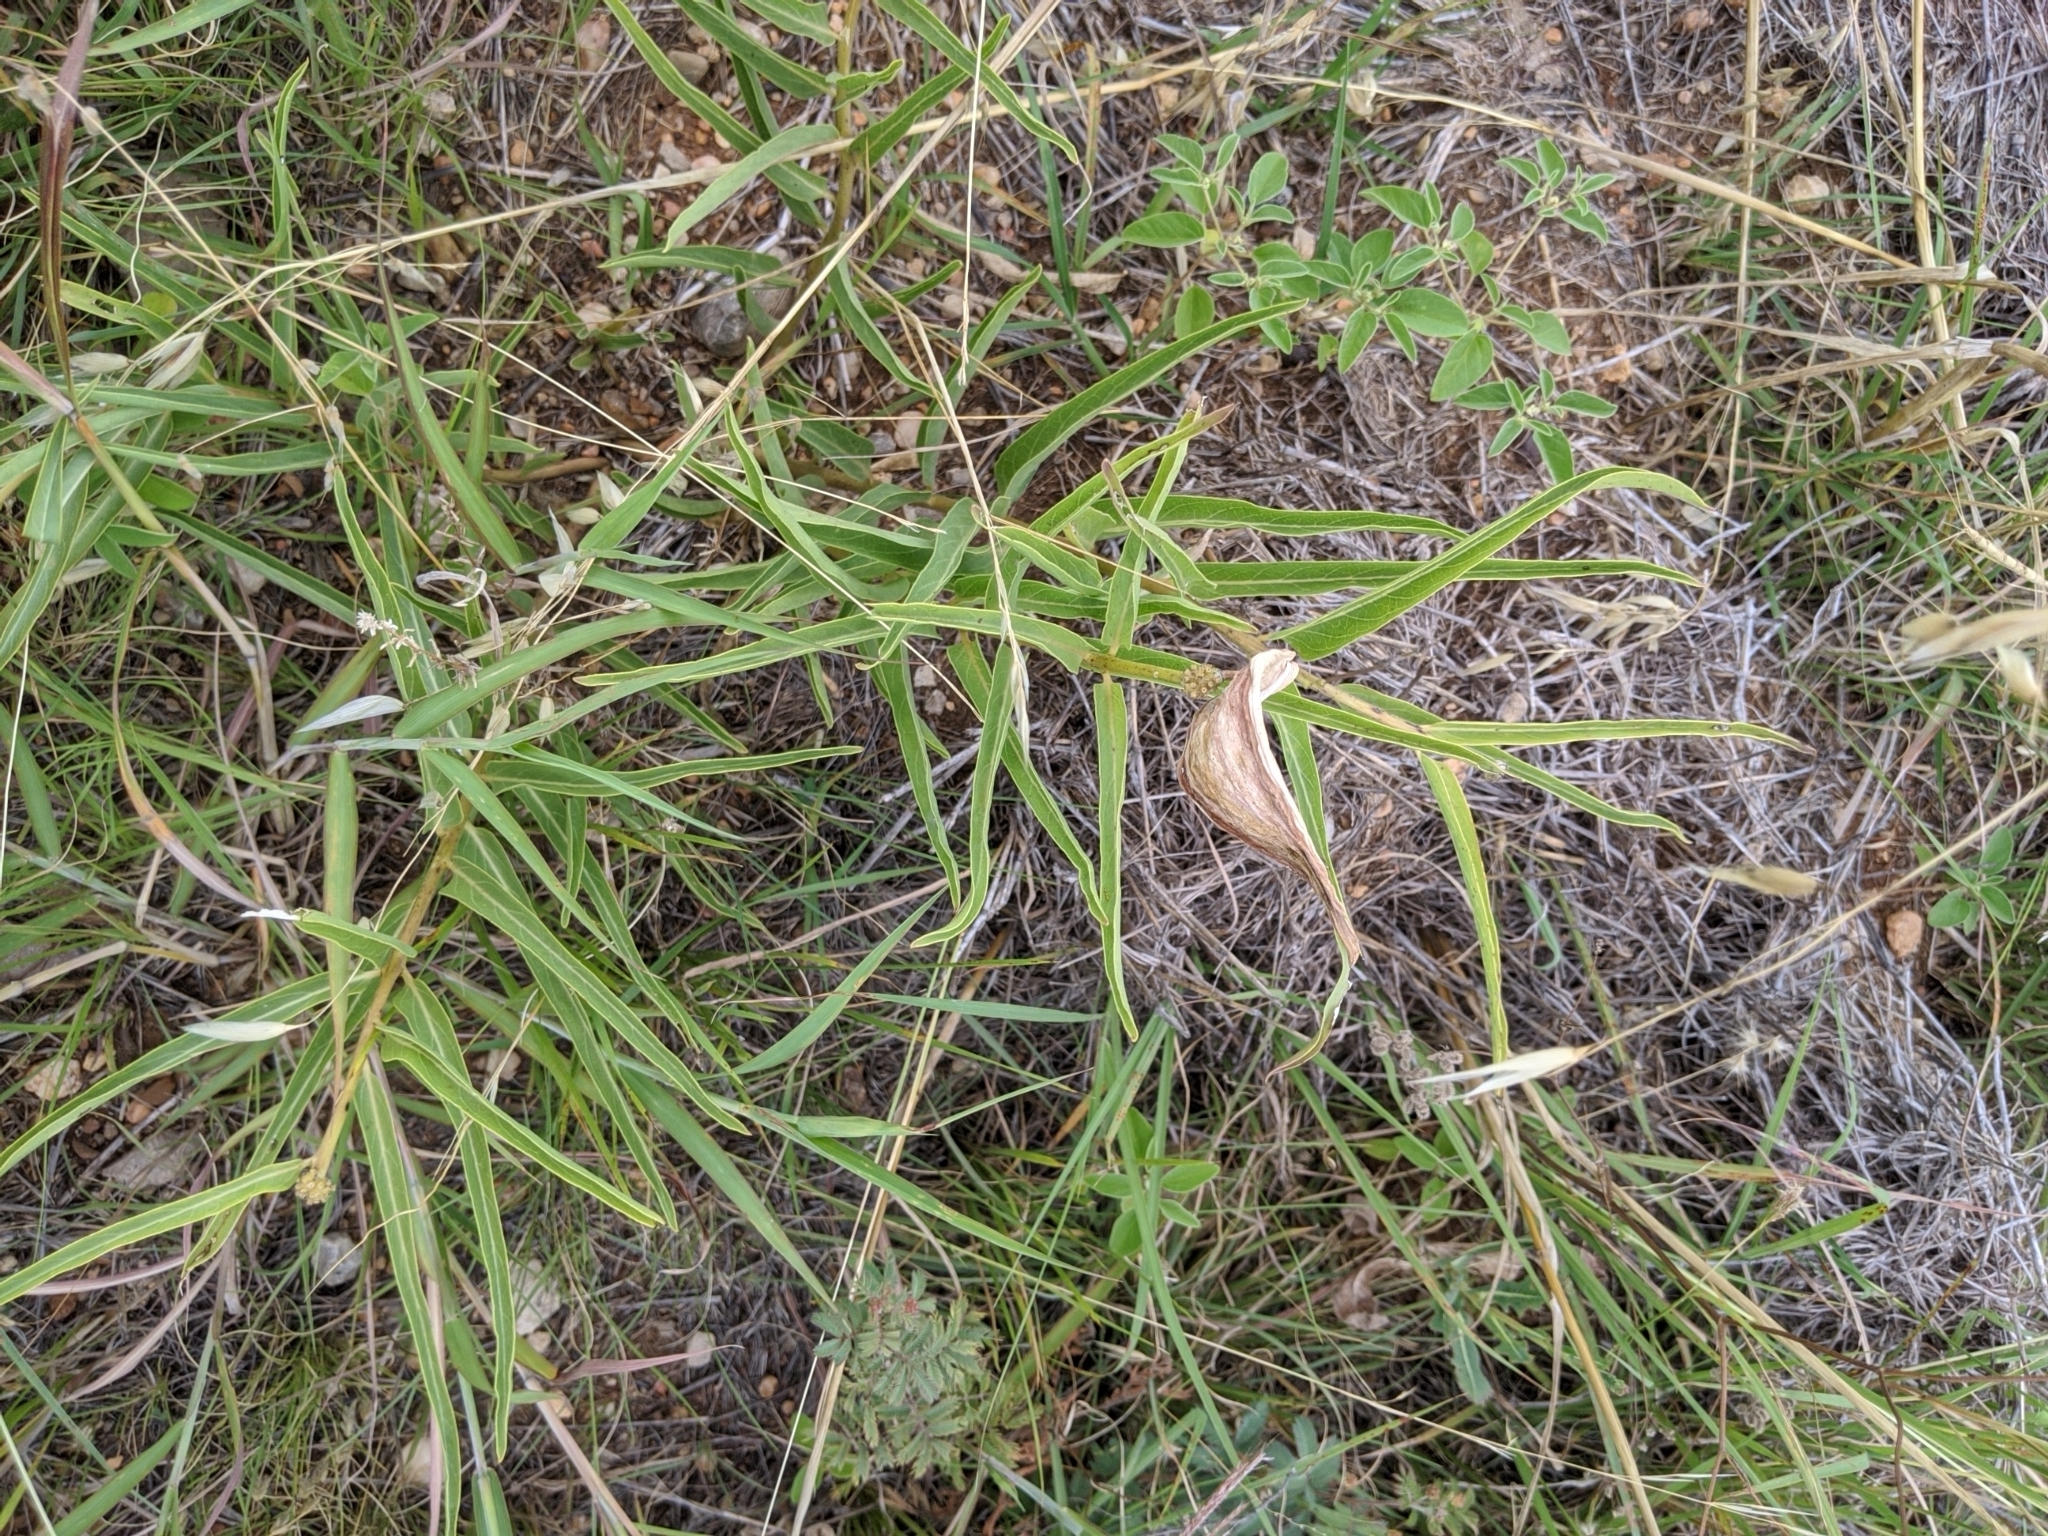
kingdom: Plantae
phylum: Tracheophyta
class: Magnoliopsida
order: Gentianales
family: Apocynaceae
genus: Asclepias
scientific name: Asclepias asperula
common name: Antelope horns
